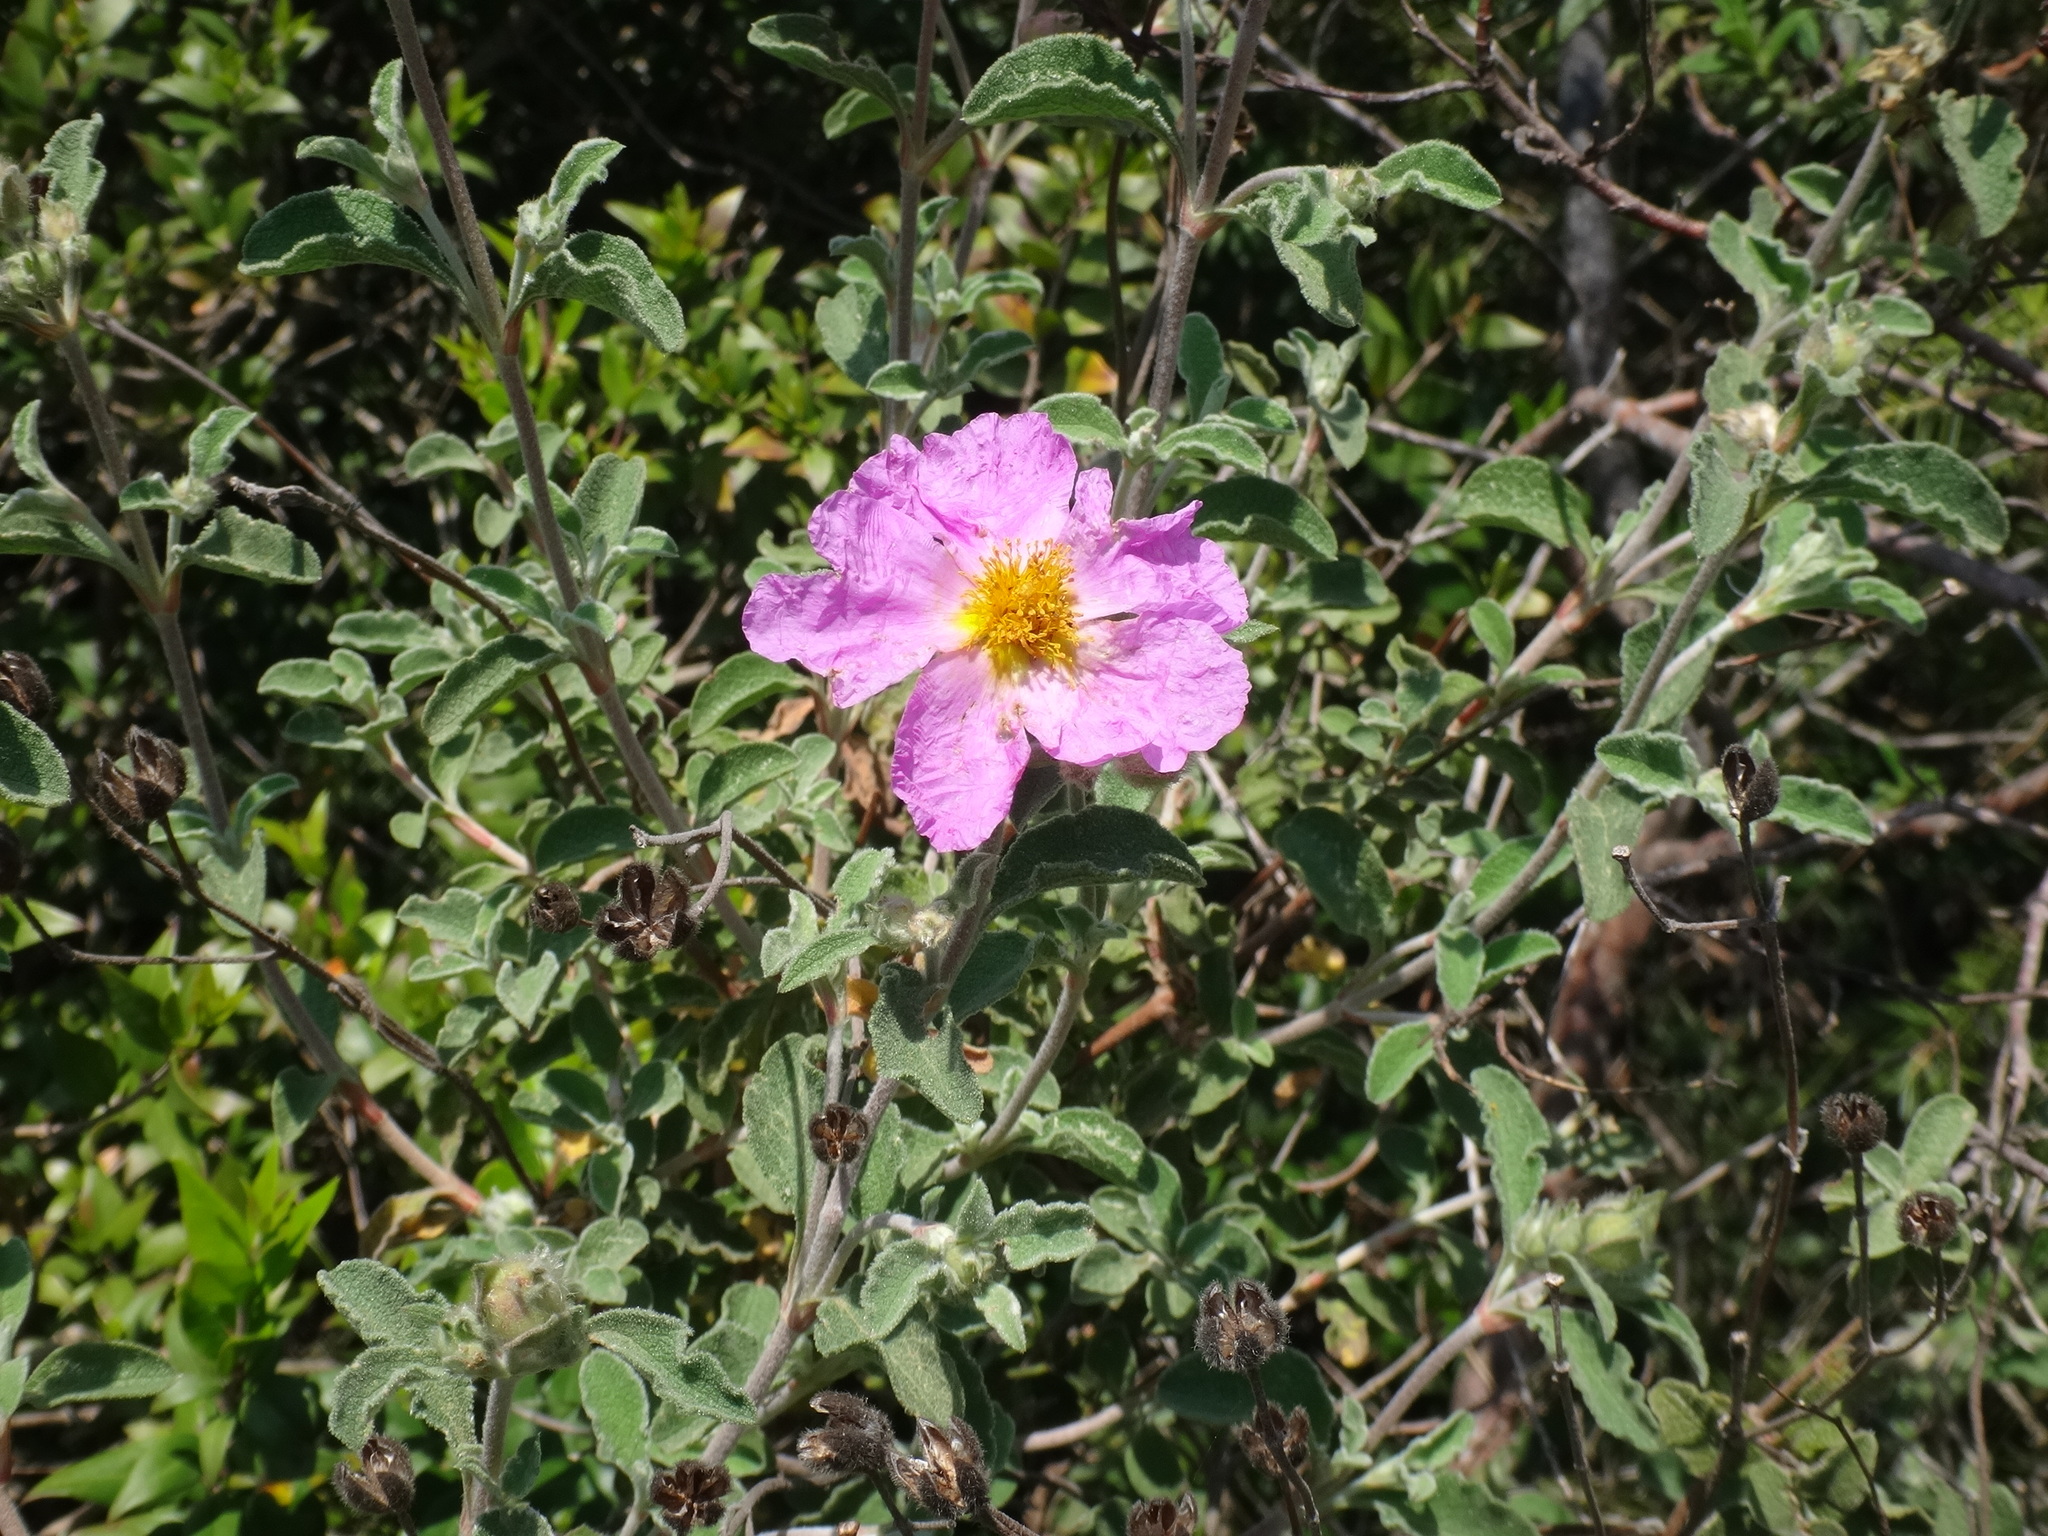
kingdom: Plantae
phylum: Tracheophyta
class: Magnoliopsida
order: Malvales
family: Cistaceae
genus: Cistus
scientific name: Cistus creticus
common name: Cretan rockrose
